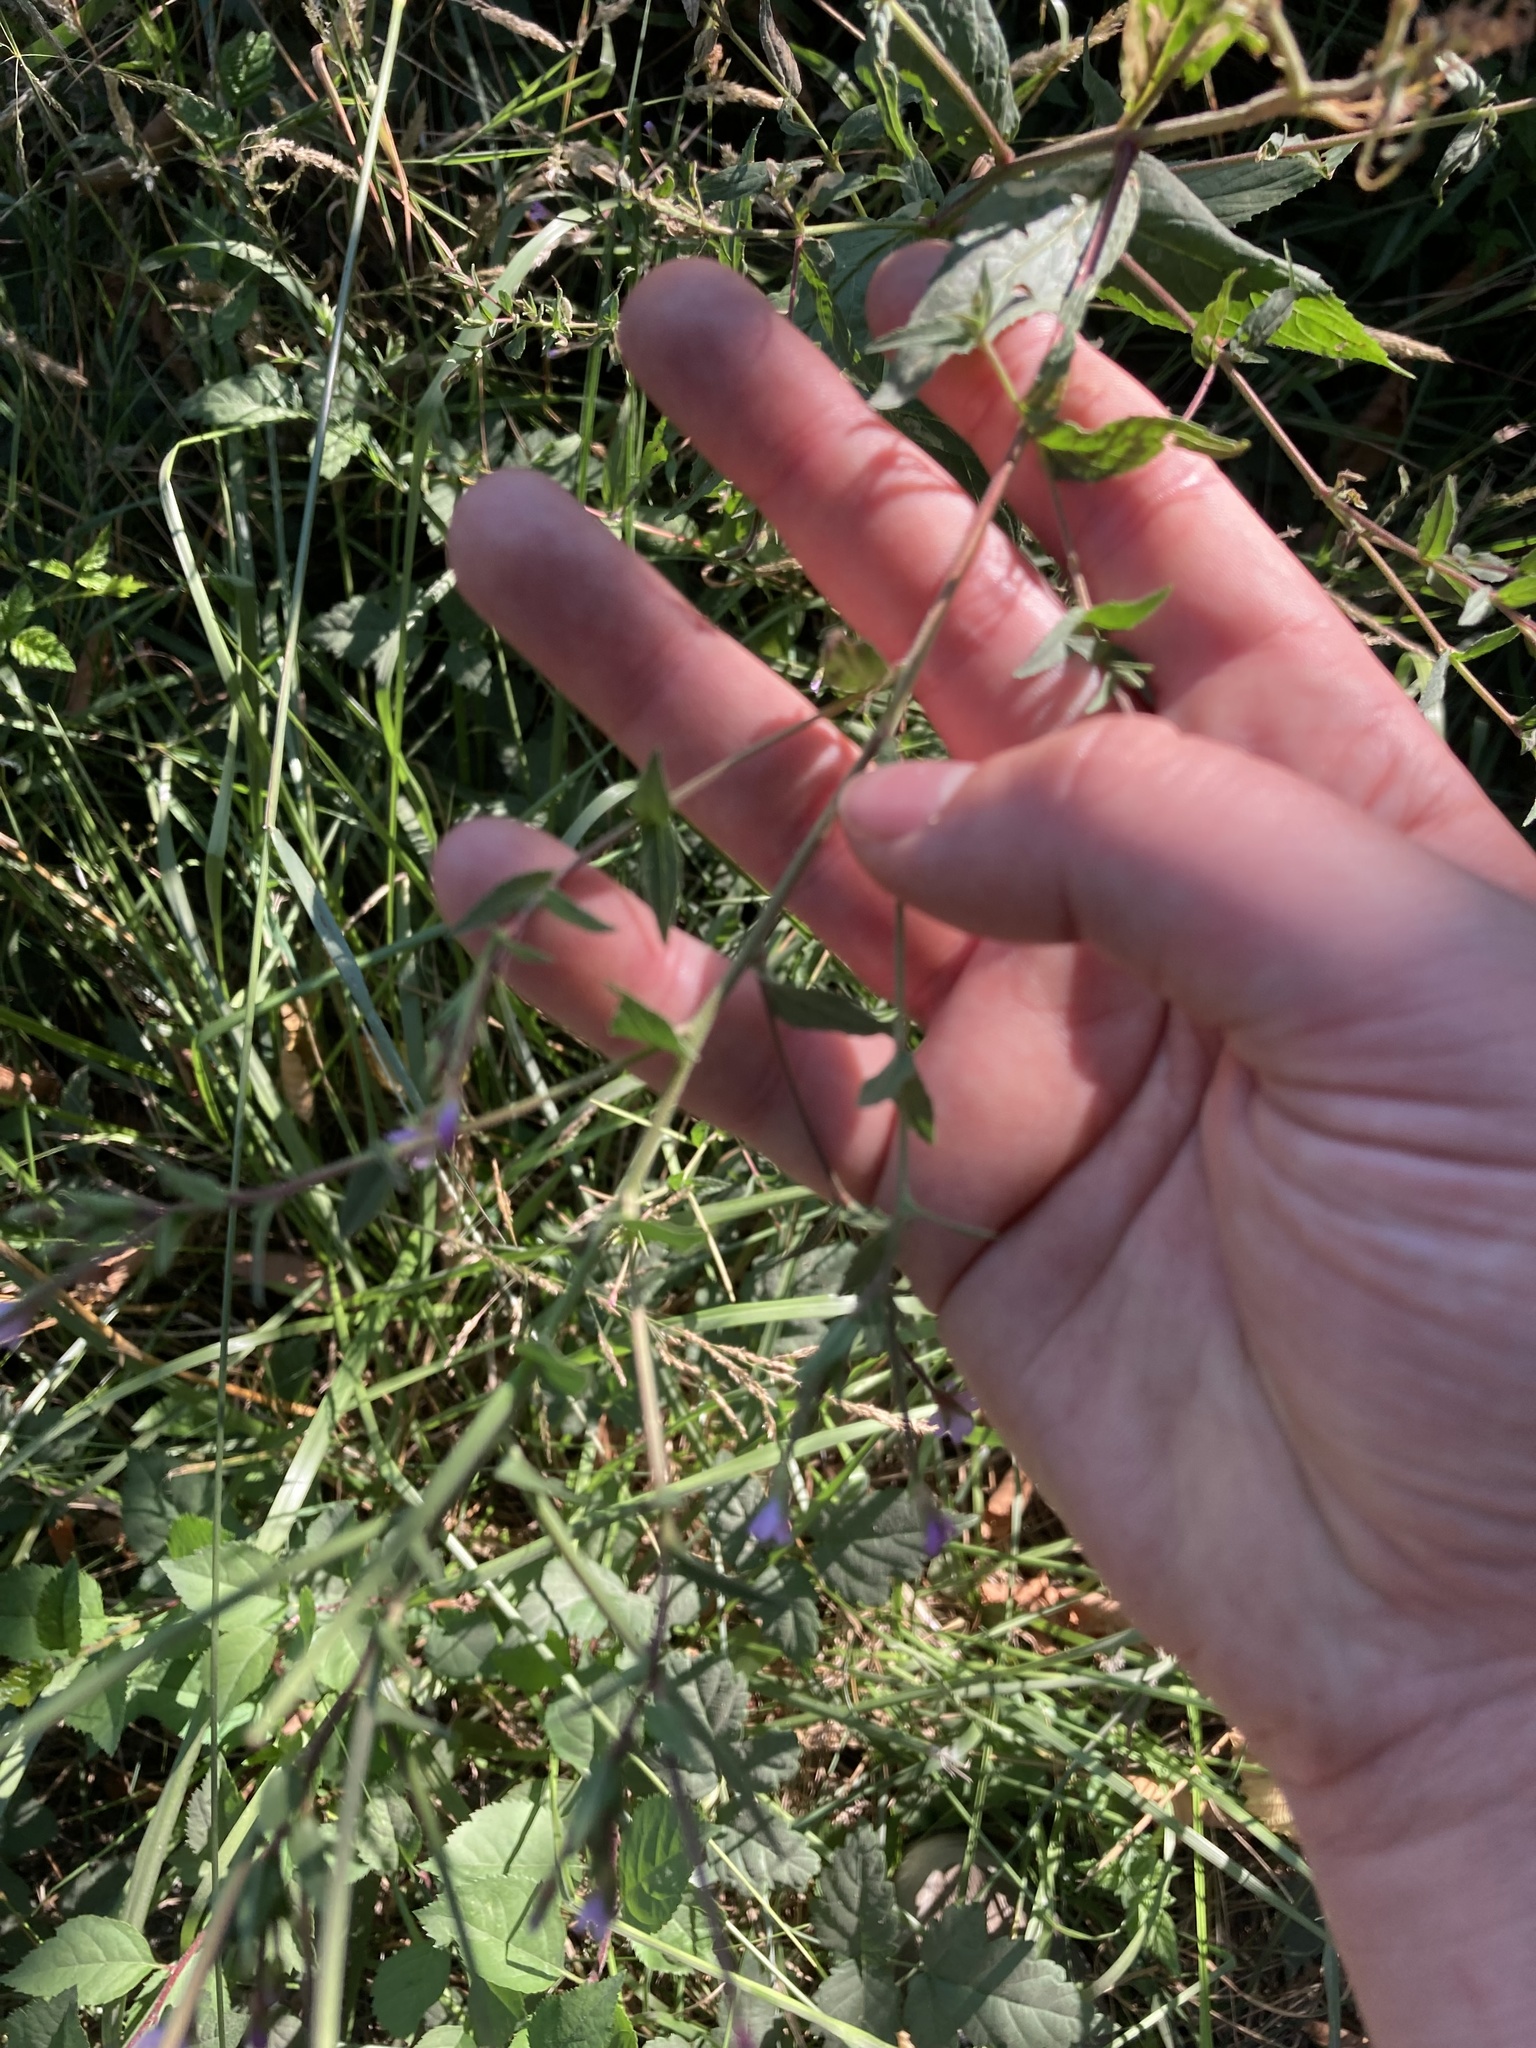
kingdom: Plantae
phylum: Tracheophyta
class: Magnoliopsida
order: Myrtales
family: Onagraceae
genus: Epilobium
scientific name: Epilobium ciliatum
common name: American willowherb
